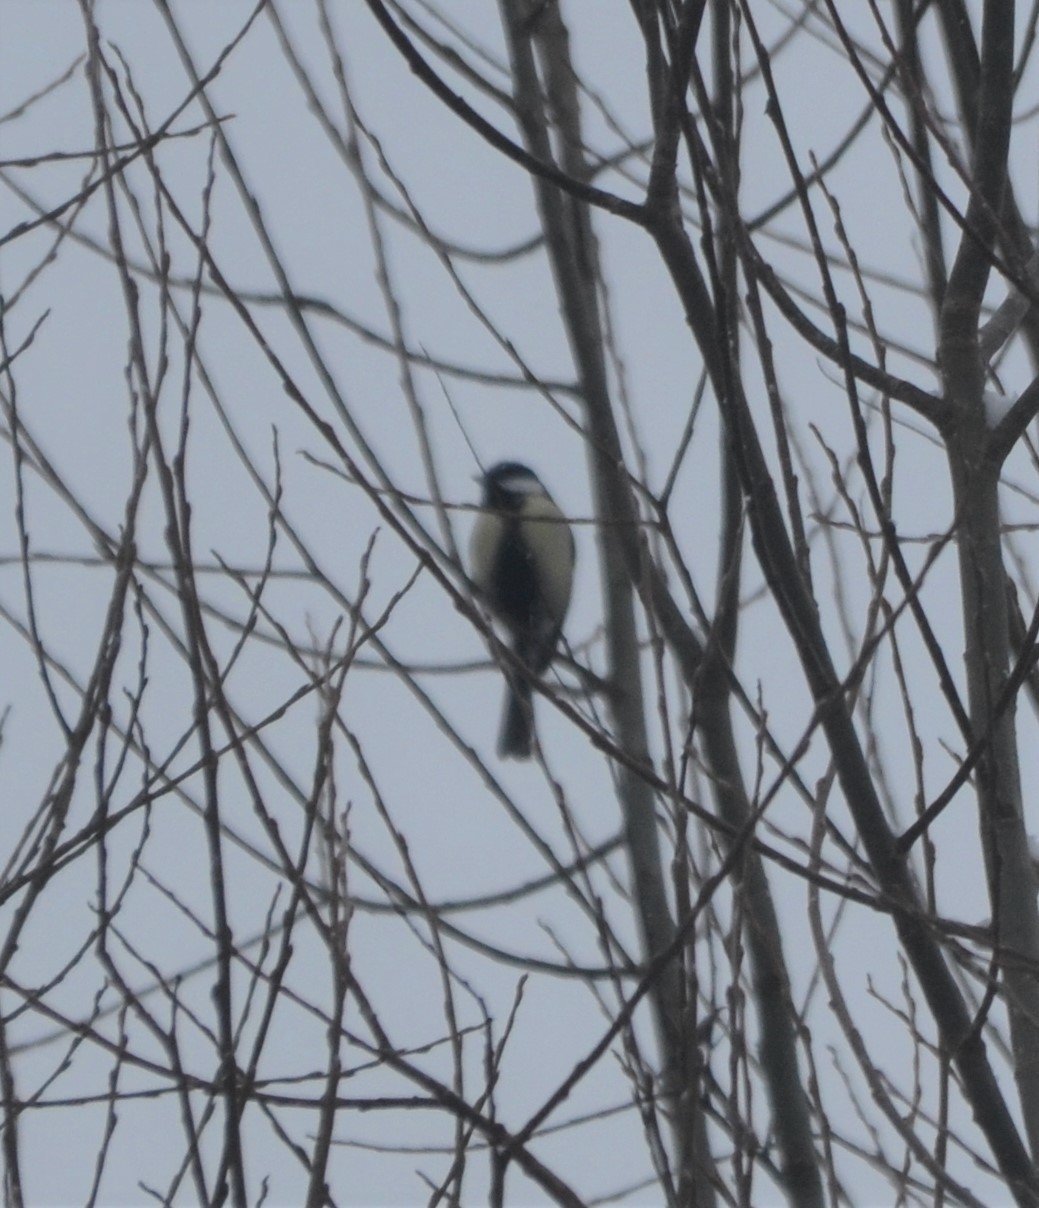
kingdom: Animalia
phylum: Chordata
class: Aves
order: Passeriformes
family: Paridae
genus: Parus
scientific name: Parus major
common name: Great tit
